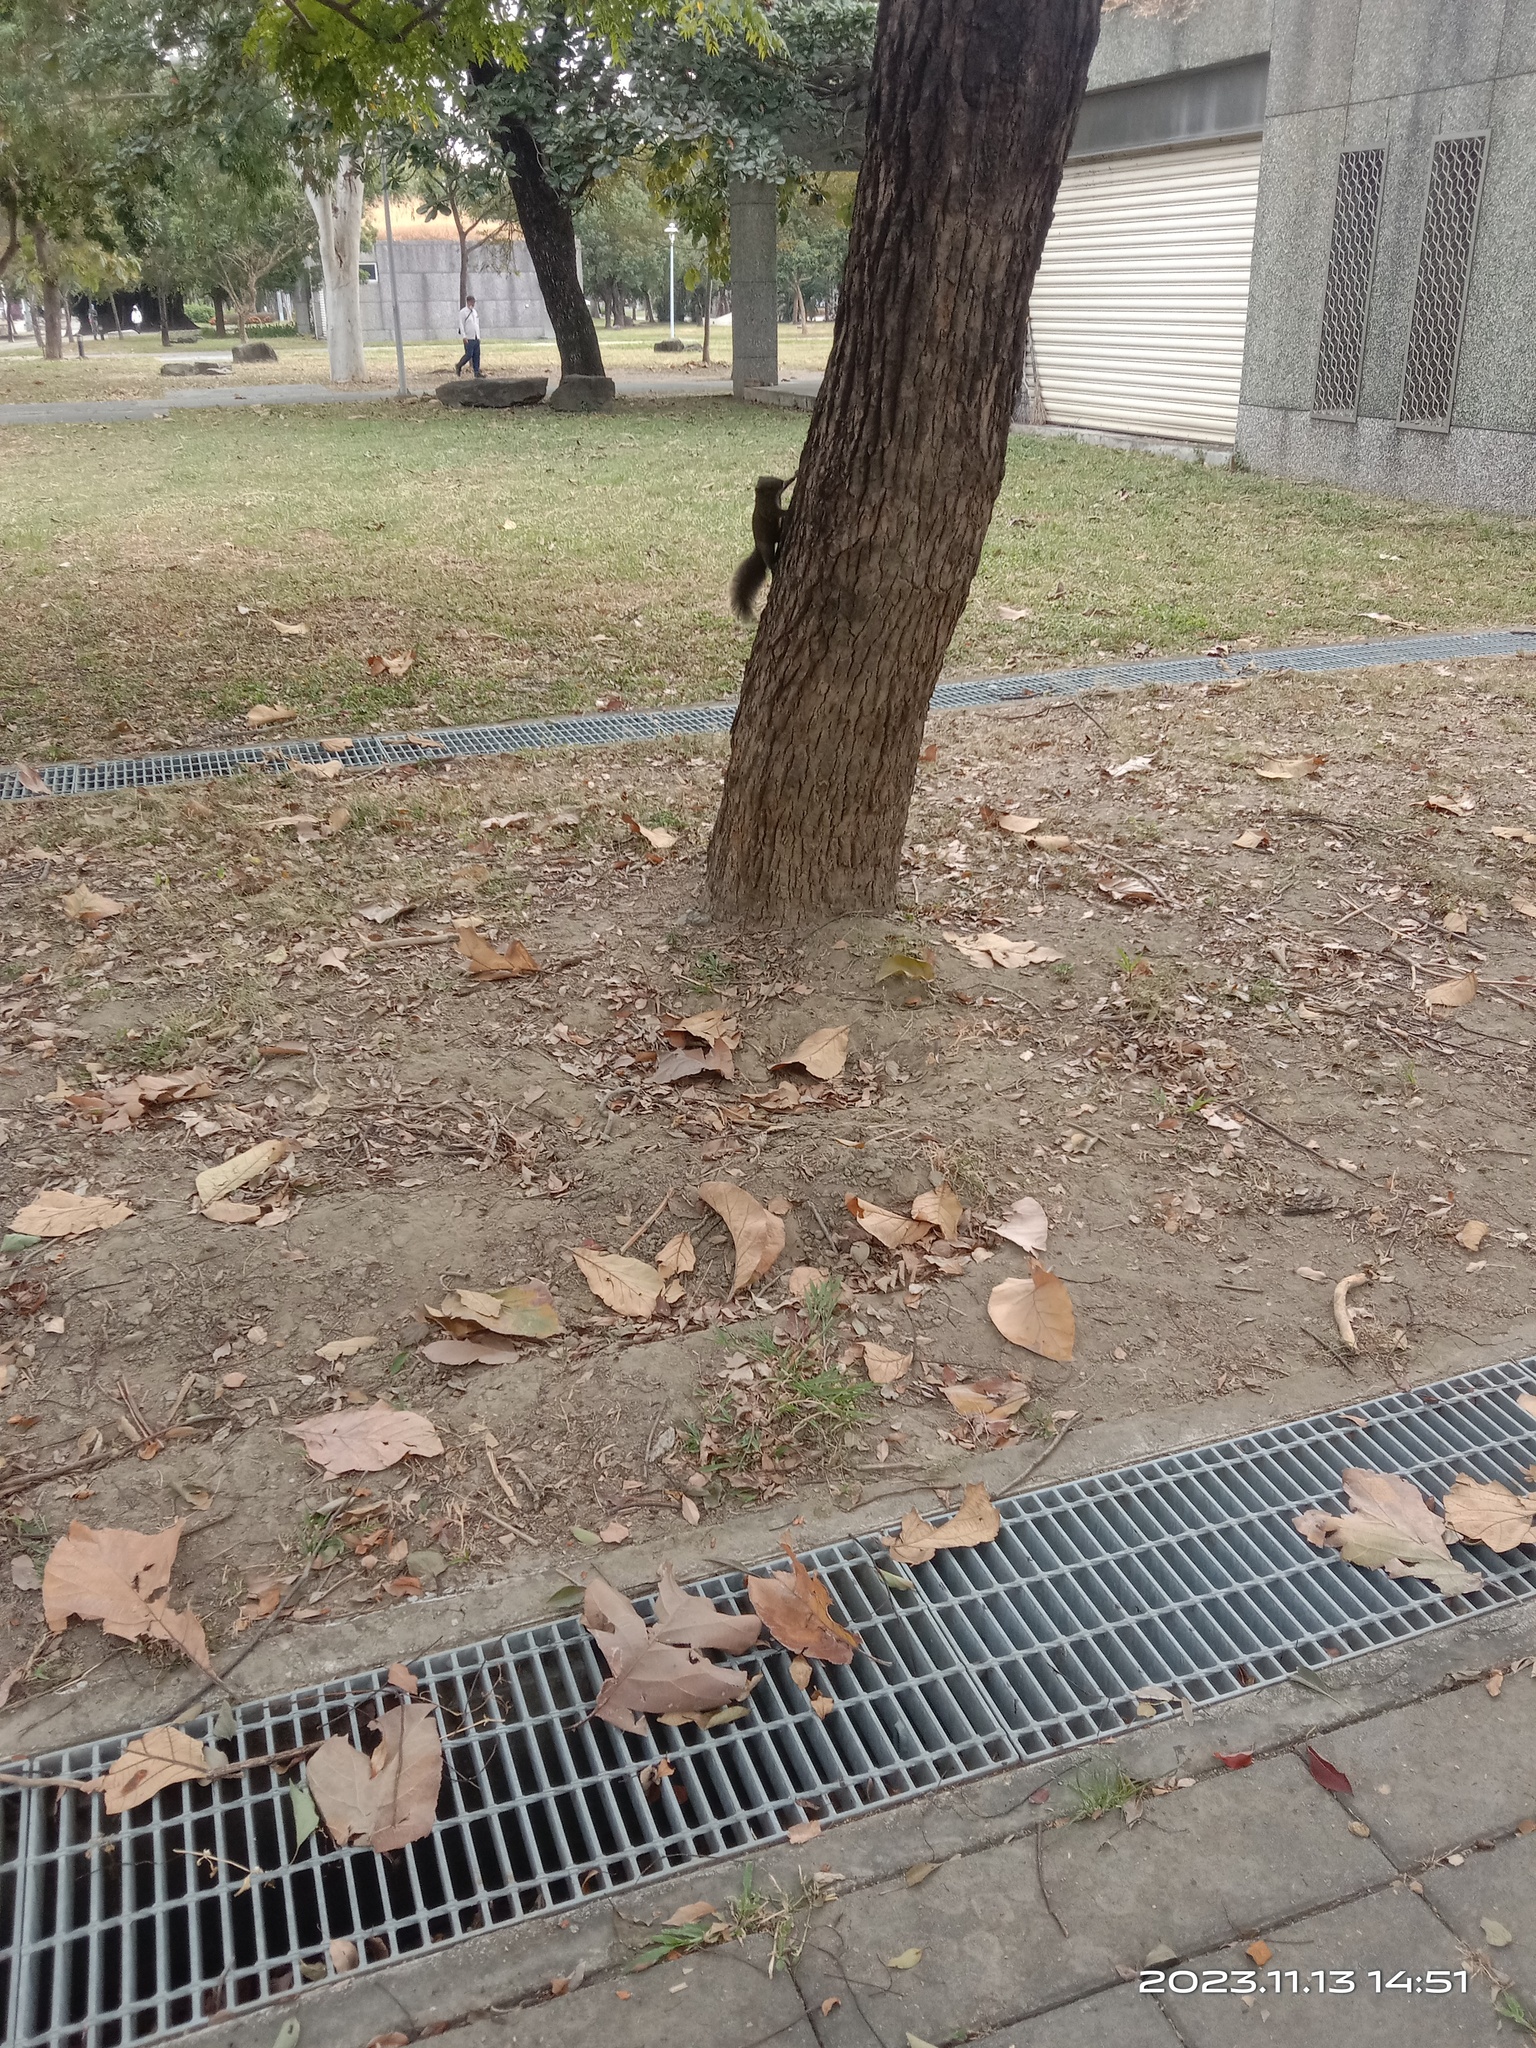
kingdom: Animalia
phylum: Chordata
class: Mammalia
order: Rodentia
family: Sciuridae
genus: Callosciurus
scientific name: Callosciurus erythraeus
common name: Pallas's squirrel
